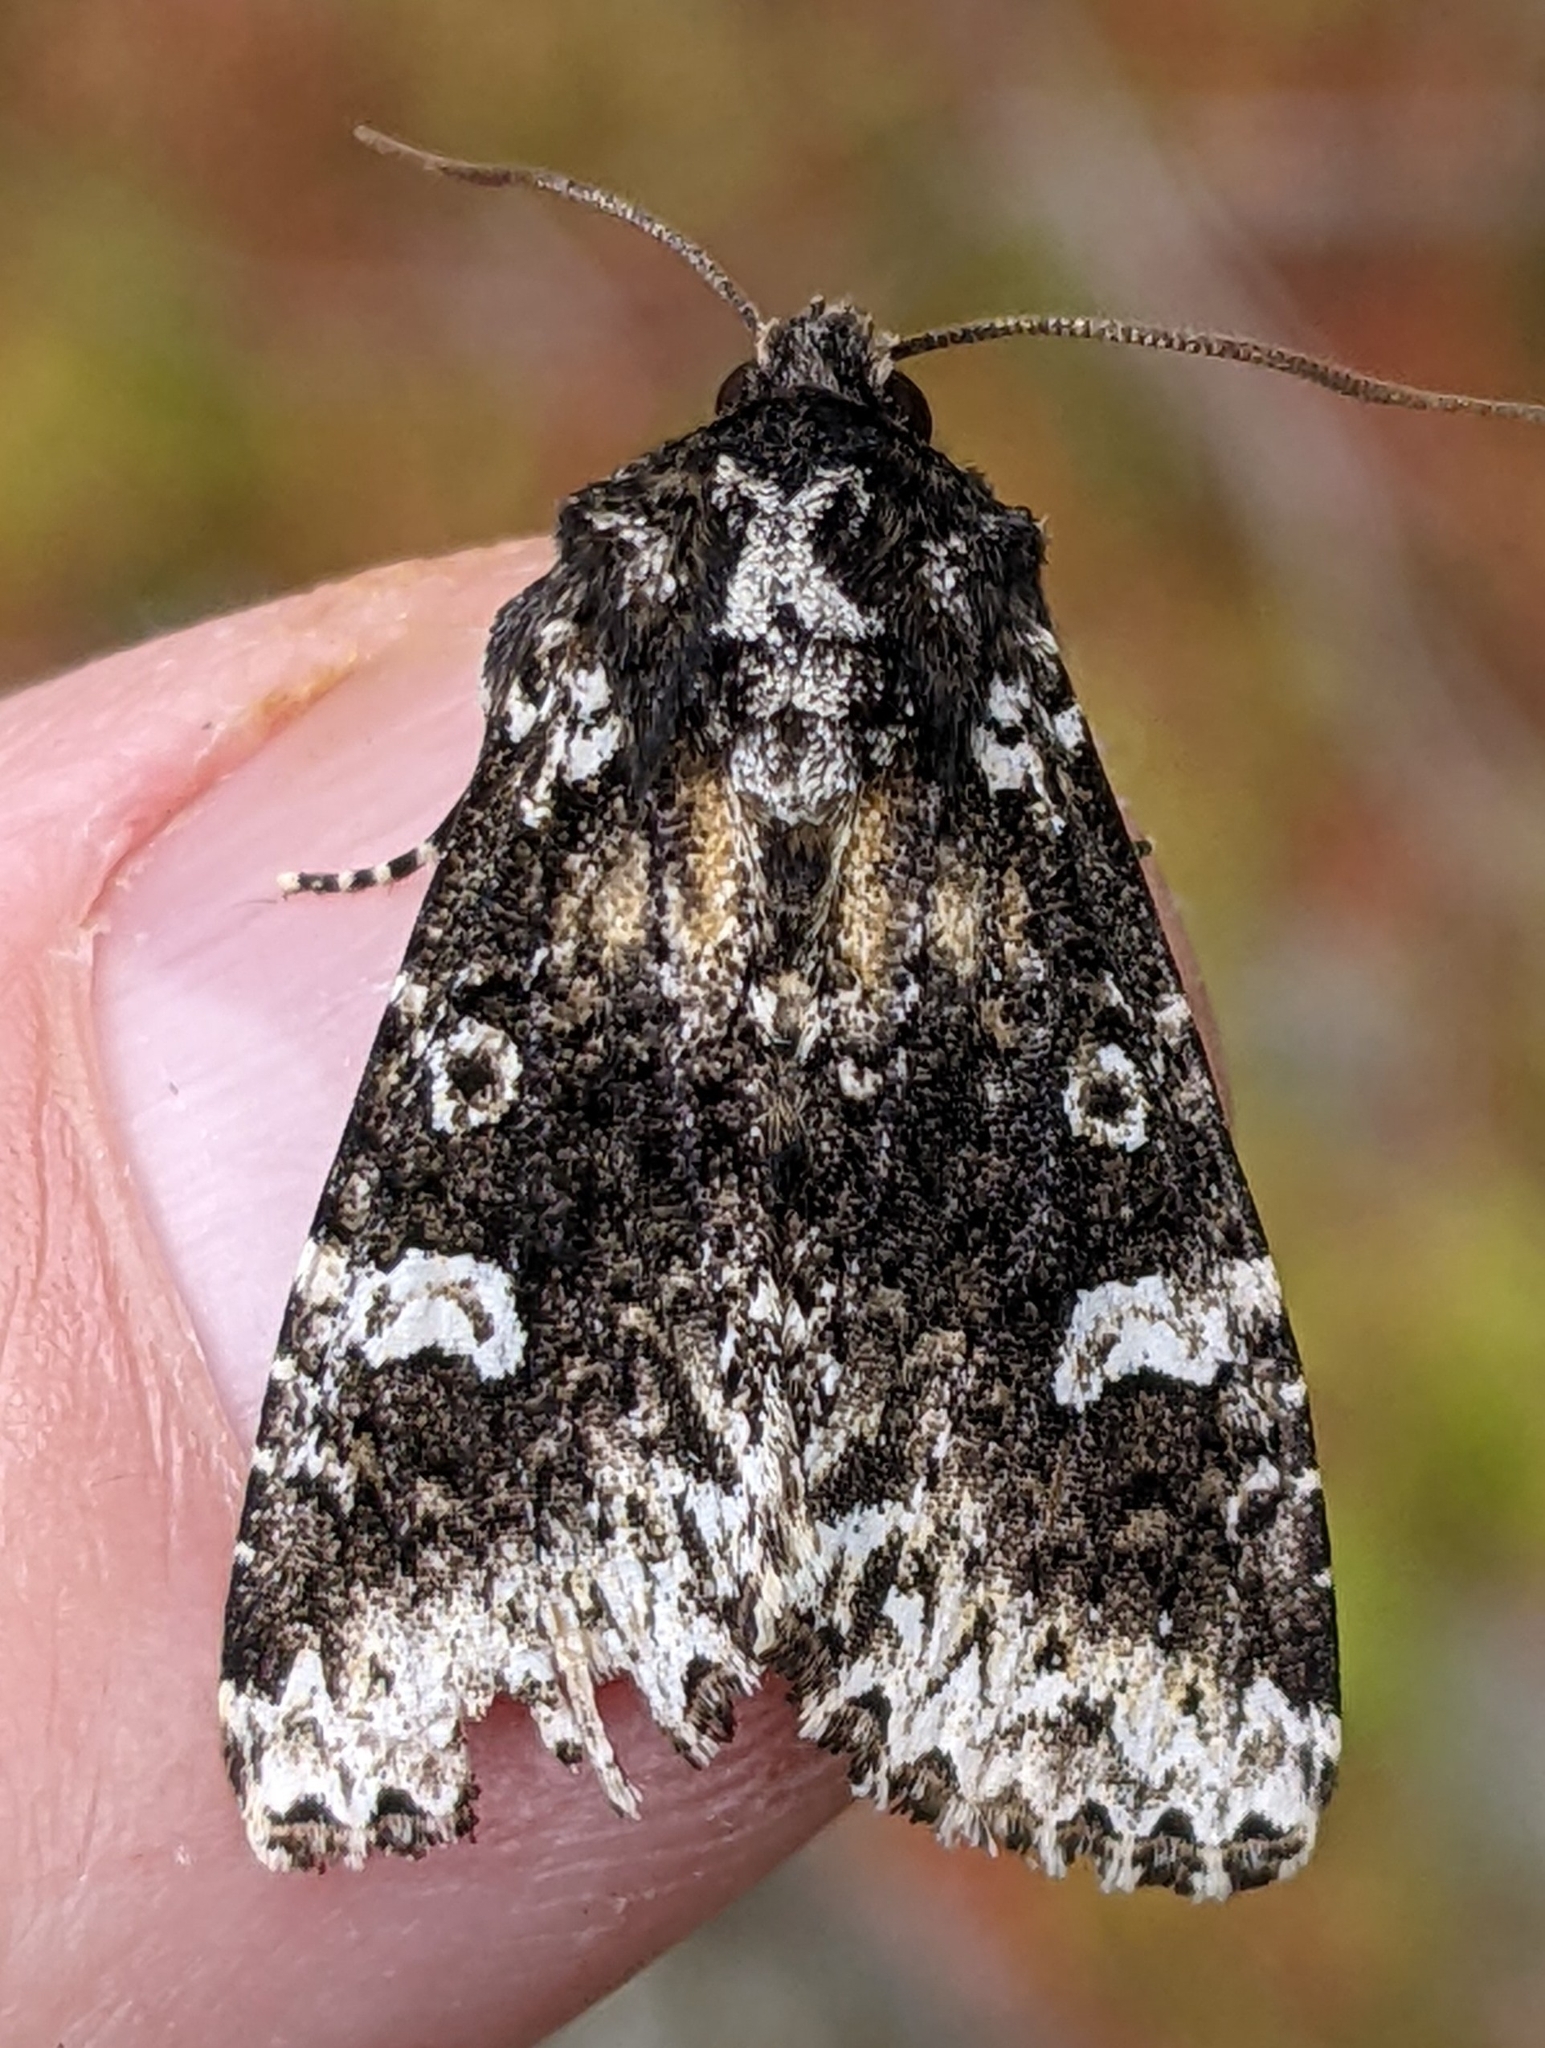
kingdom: Animalia
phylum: Arthropoda
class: Insecta
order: Lepidoptera
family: Noctuidae
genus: Melanchra
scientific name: Melanchra adjuncta
